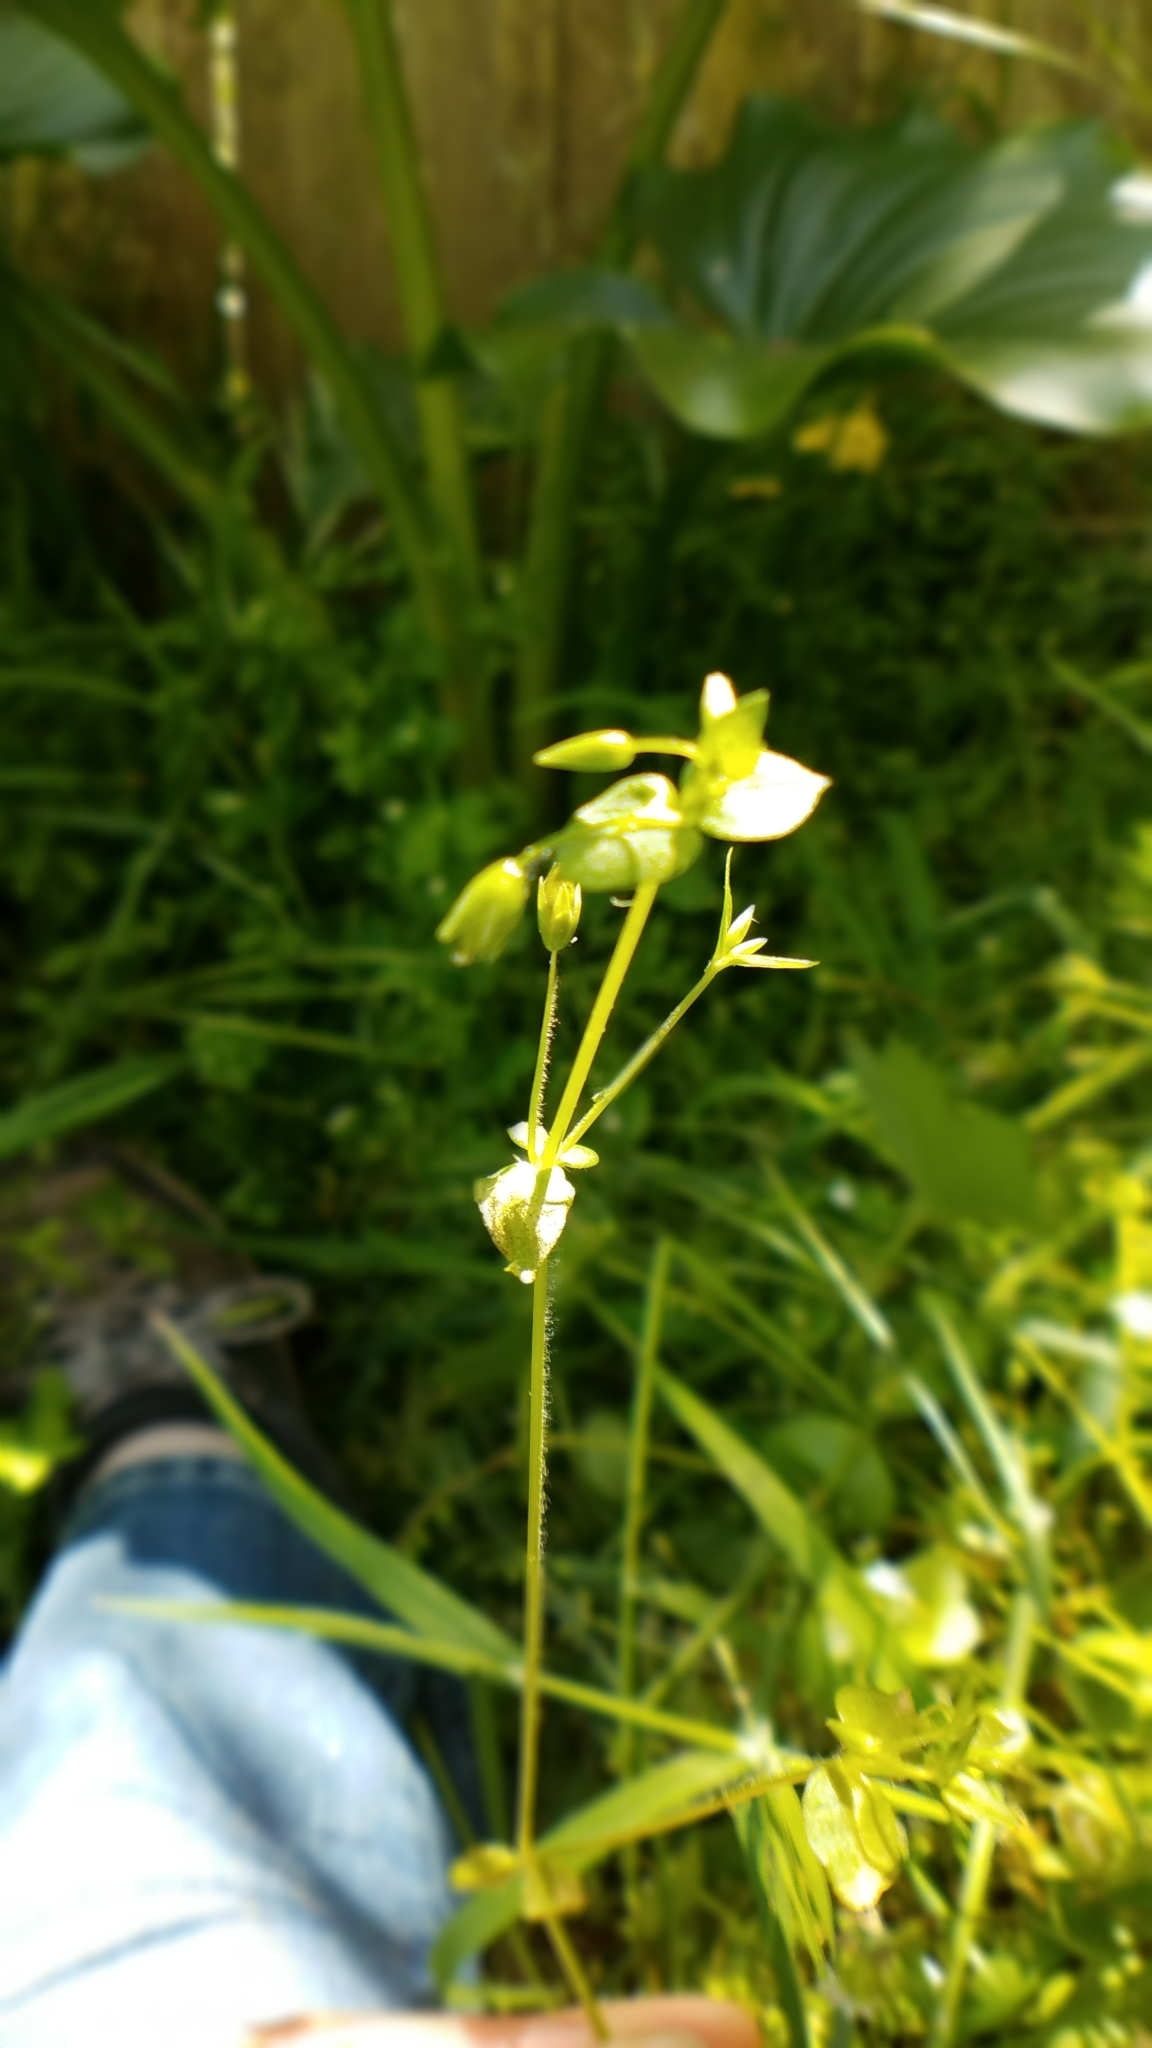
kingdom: Plantae
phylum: Tracheophyta
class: Magnoliopsida
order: Caryophyllales
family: Caryophyllaceae
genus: Stellaria
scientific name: Stellaria media
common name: Common chickweed
